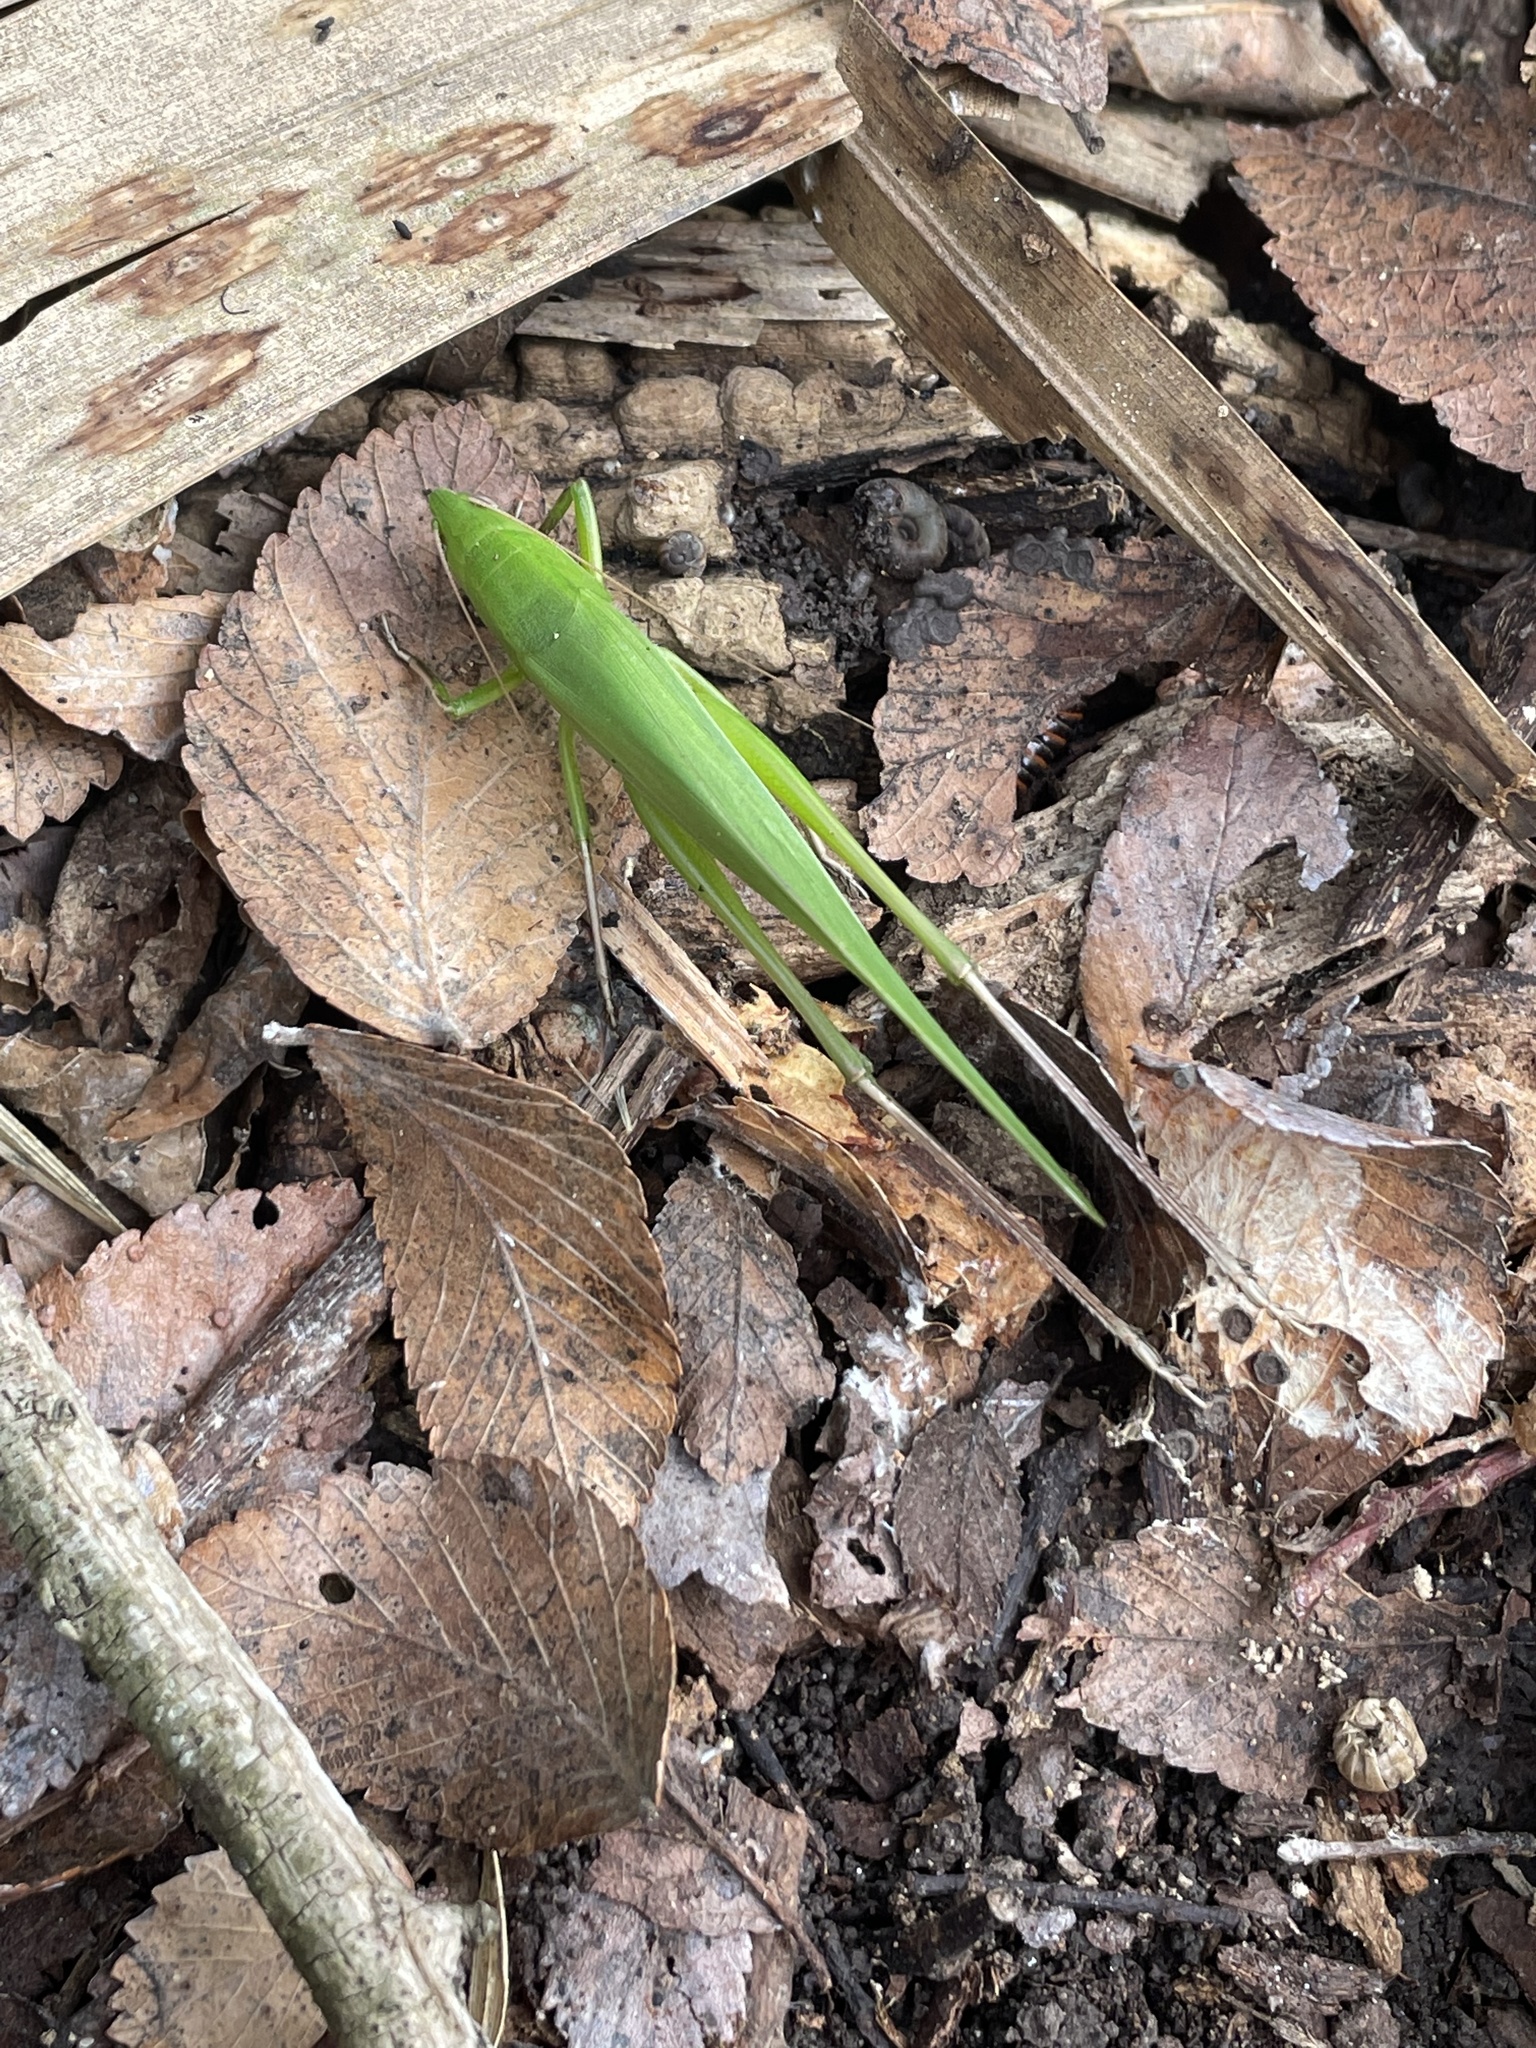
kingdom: Animalia
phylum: Arthropoda
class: Insecta
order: Orthoptera
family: Tettigoniidae
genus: Neoconocephalus
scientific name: Neoconocephalus triops
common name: Broad-tipped conehead
